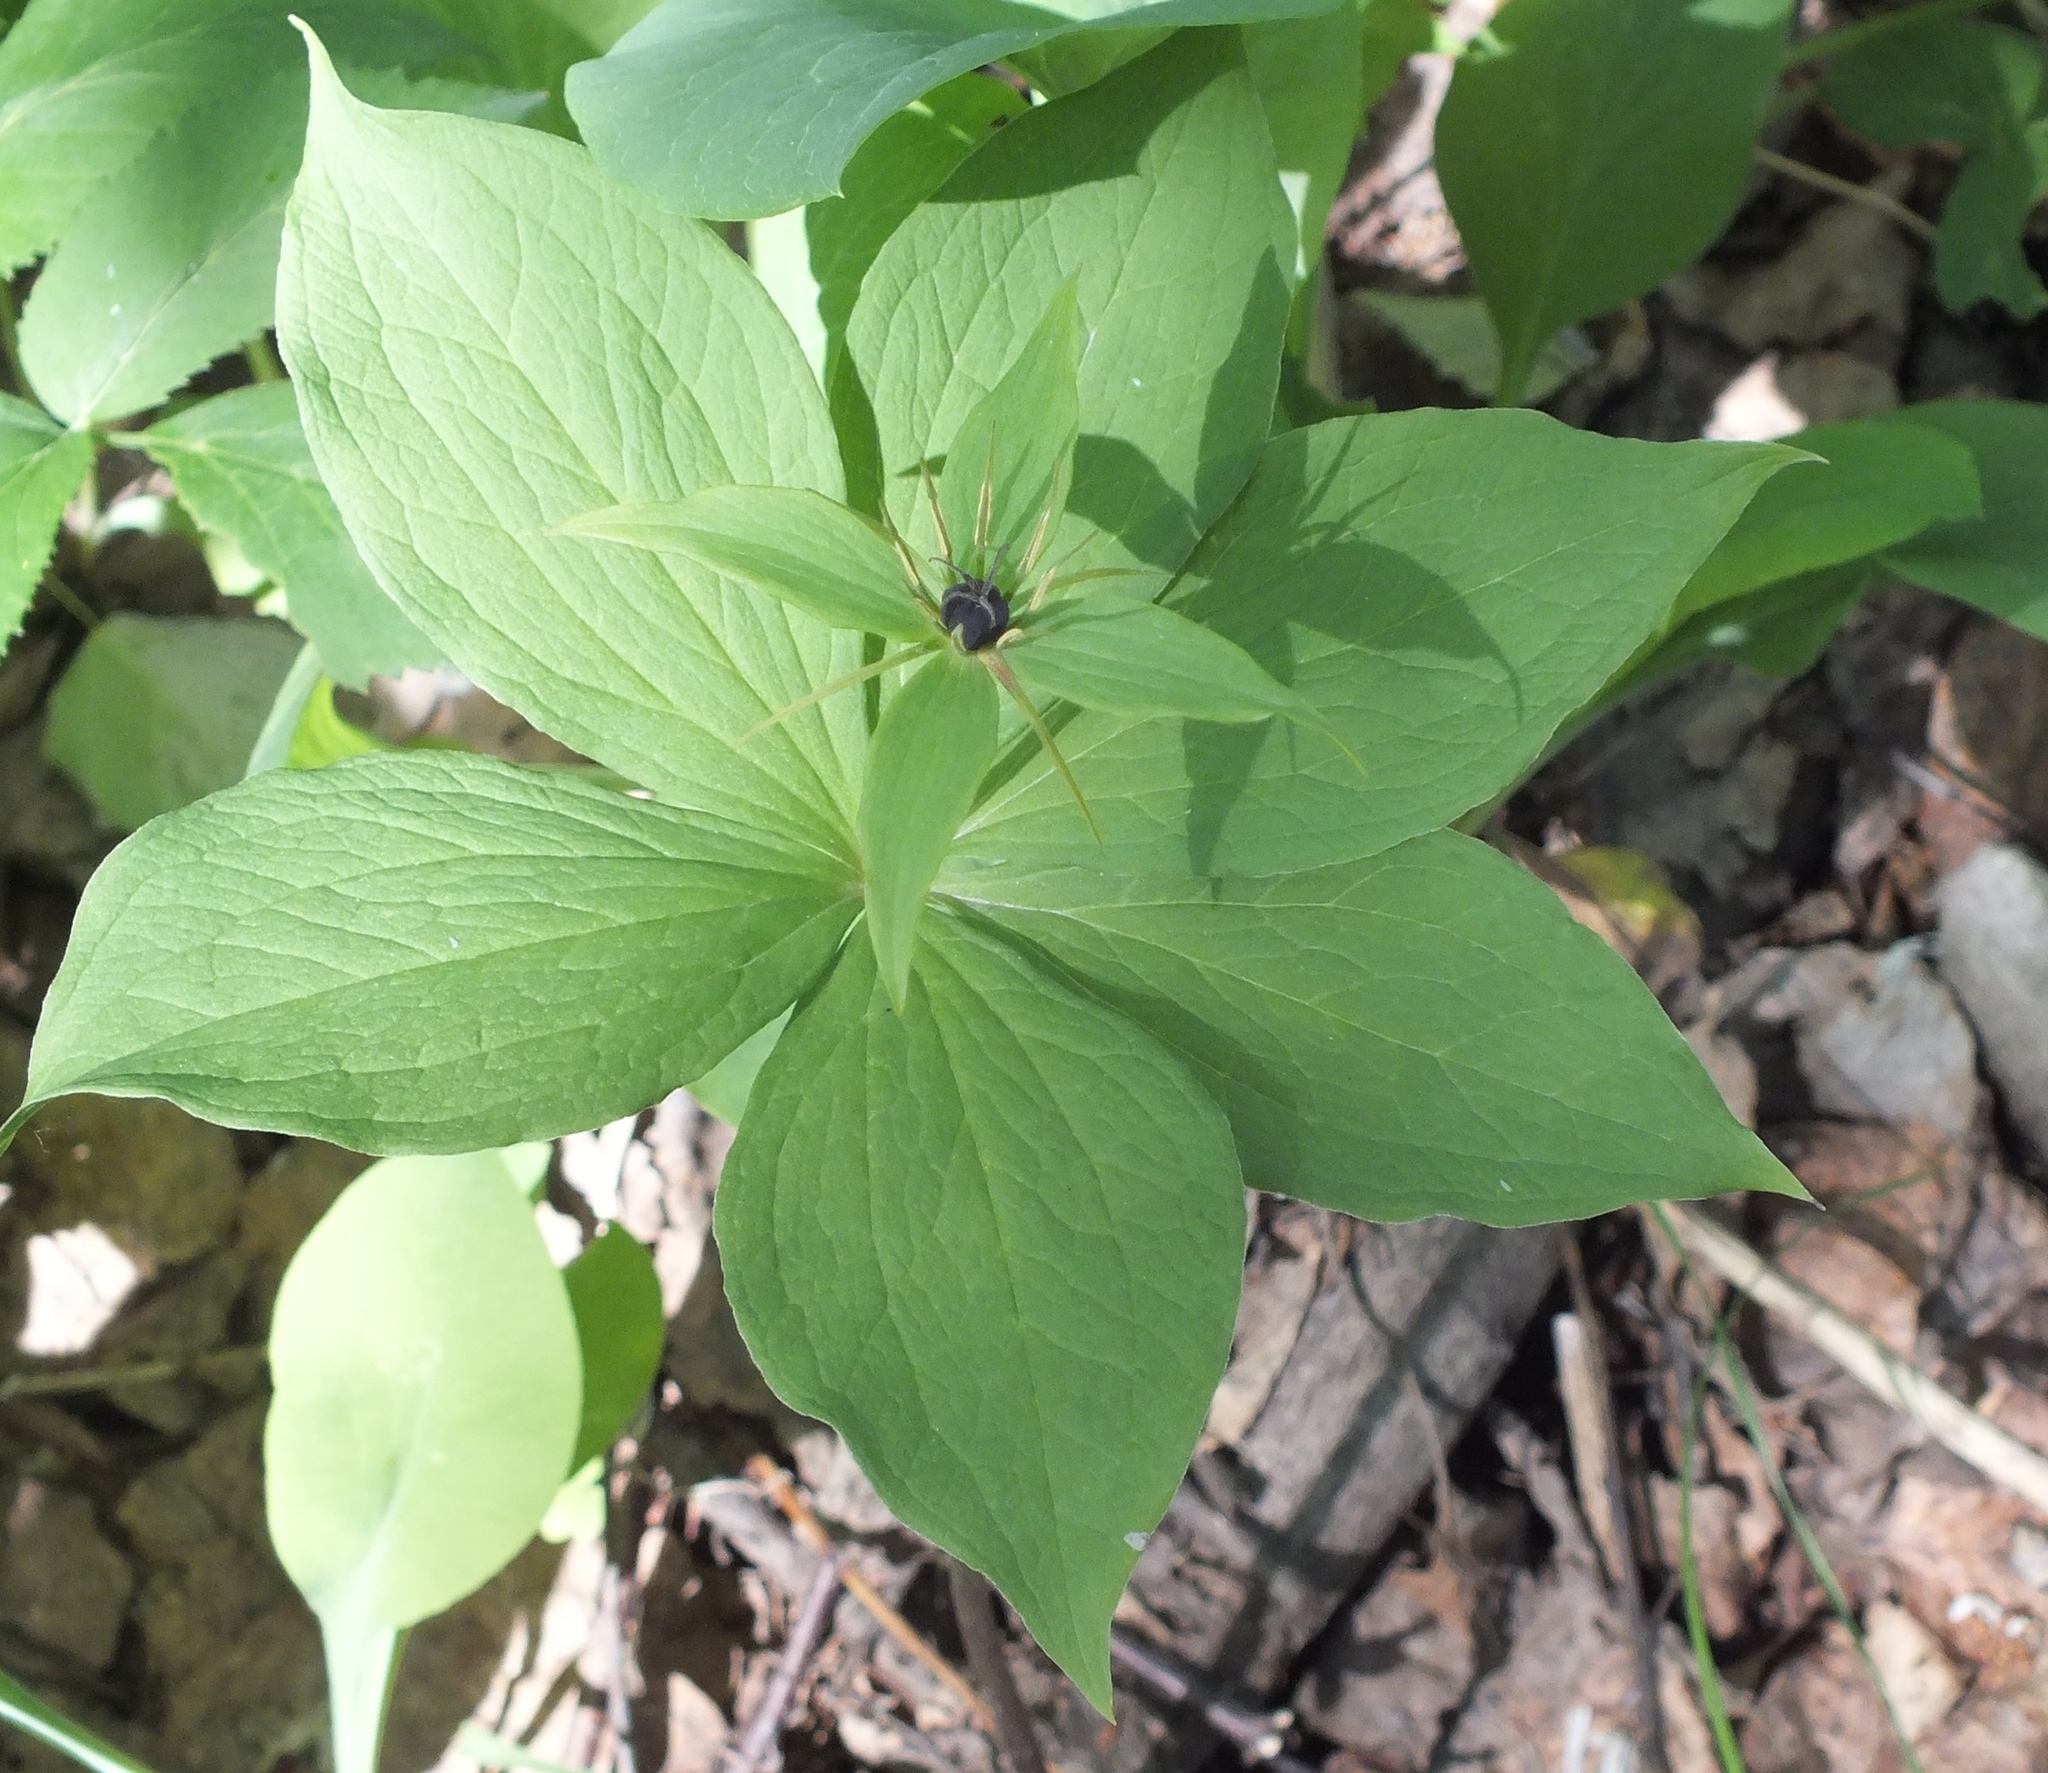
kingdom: Plantae
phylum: Tracheophyta
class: Liliopsida
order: Liliales
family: Melanthiaceae
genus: Paris
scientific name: Paris quadrifolia
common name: Herb-paris
